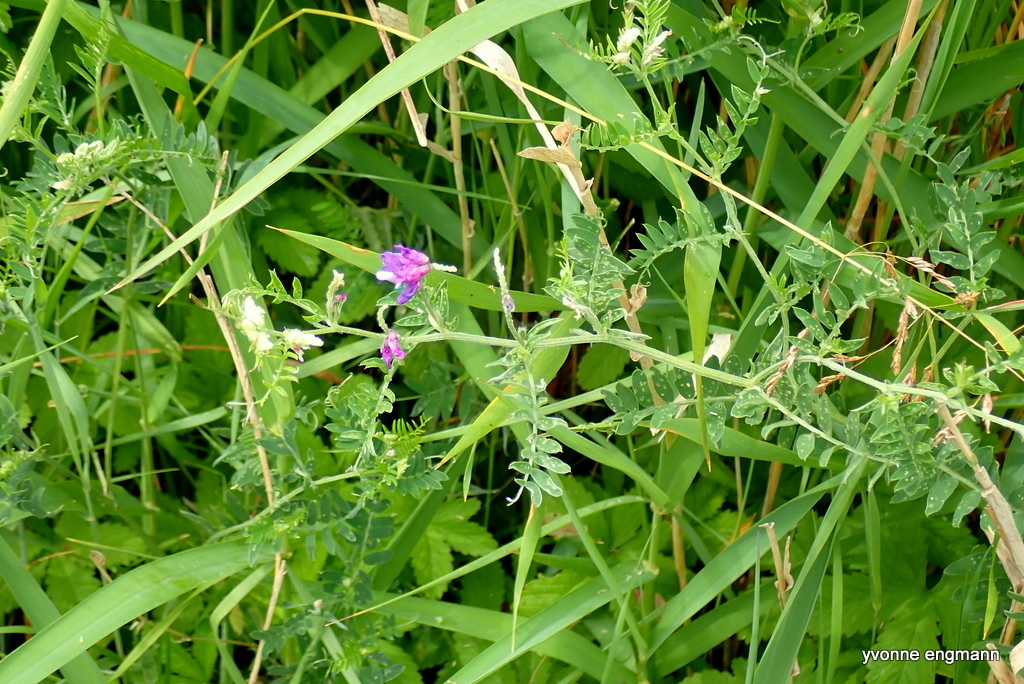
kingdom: Plantae
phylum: Tracheophyta
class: Magnoliopsida
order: Fabales
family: Fabaceae
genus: Vicia
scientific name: Vicia cracca
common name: Bird vetch
